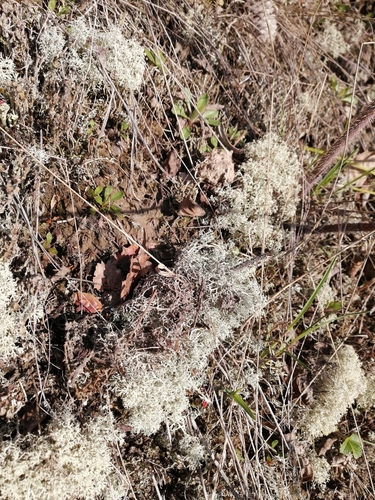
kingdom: Fungi
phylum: Ascomycota
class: Lecanoromycetes
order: Lecanorales
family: Cladoniaceae
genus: Cladonia
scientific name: Cladonia arbuscula
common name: Reindeer lichen
